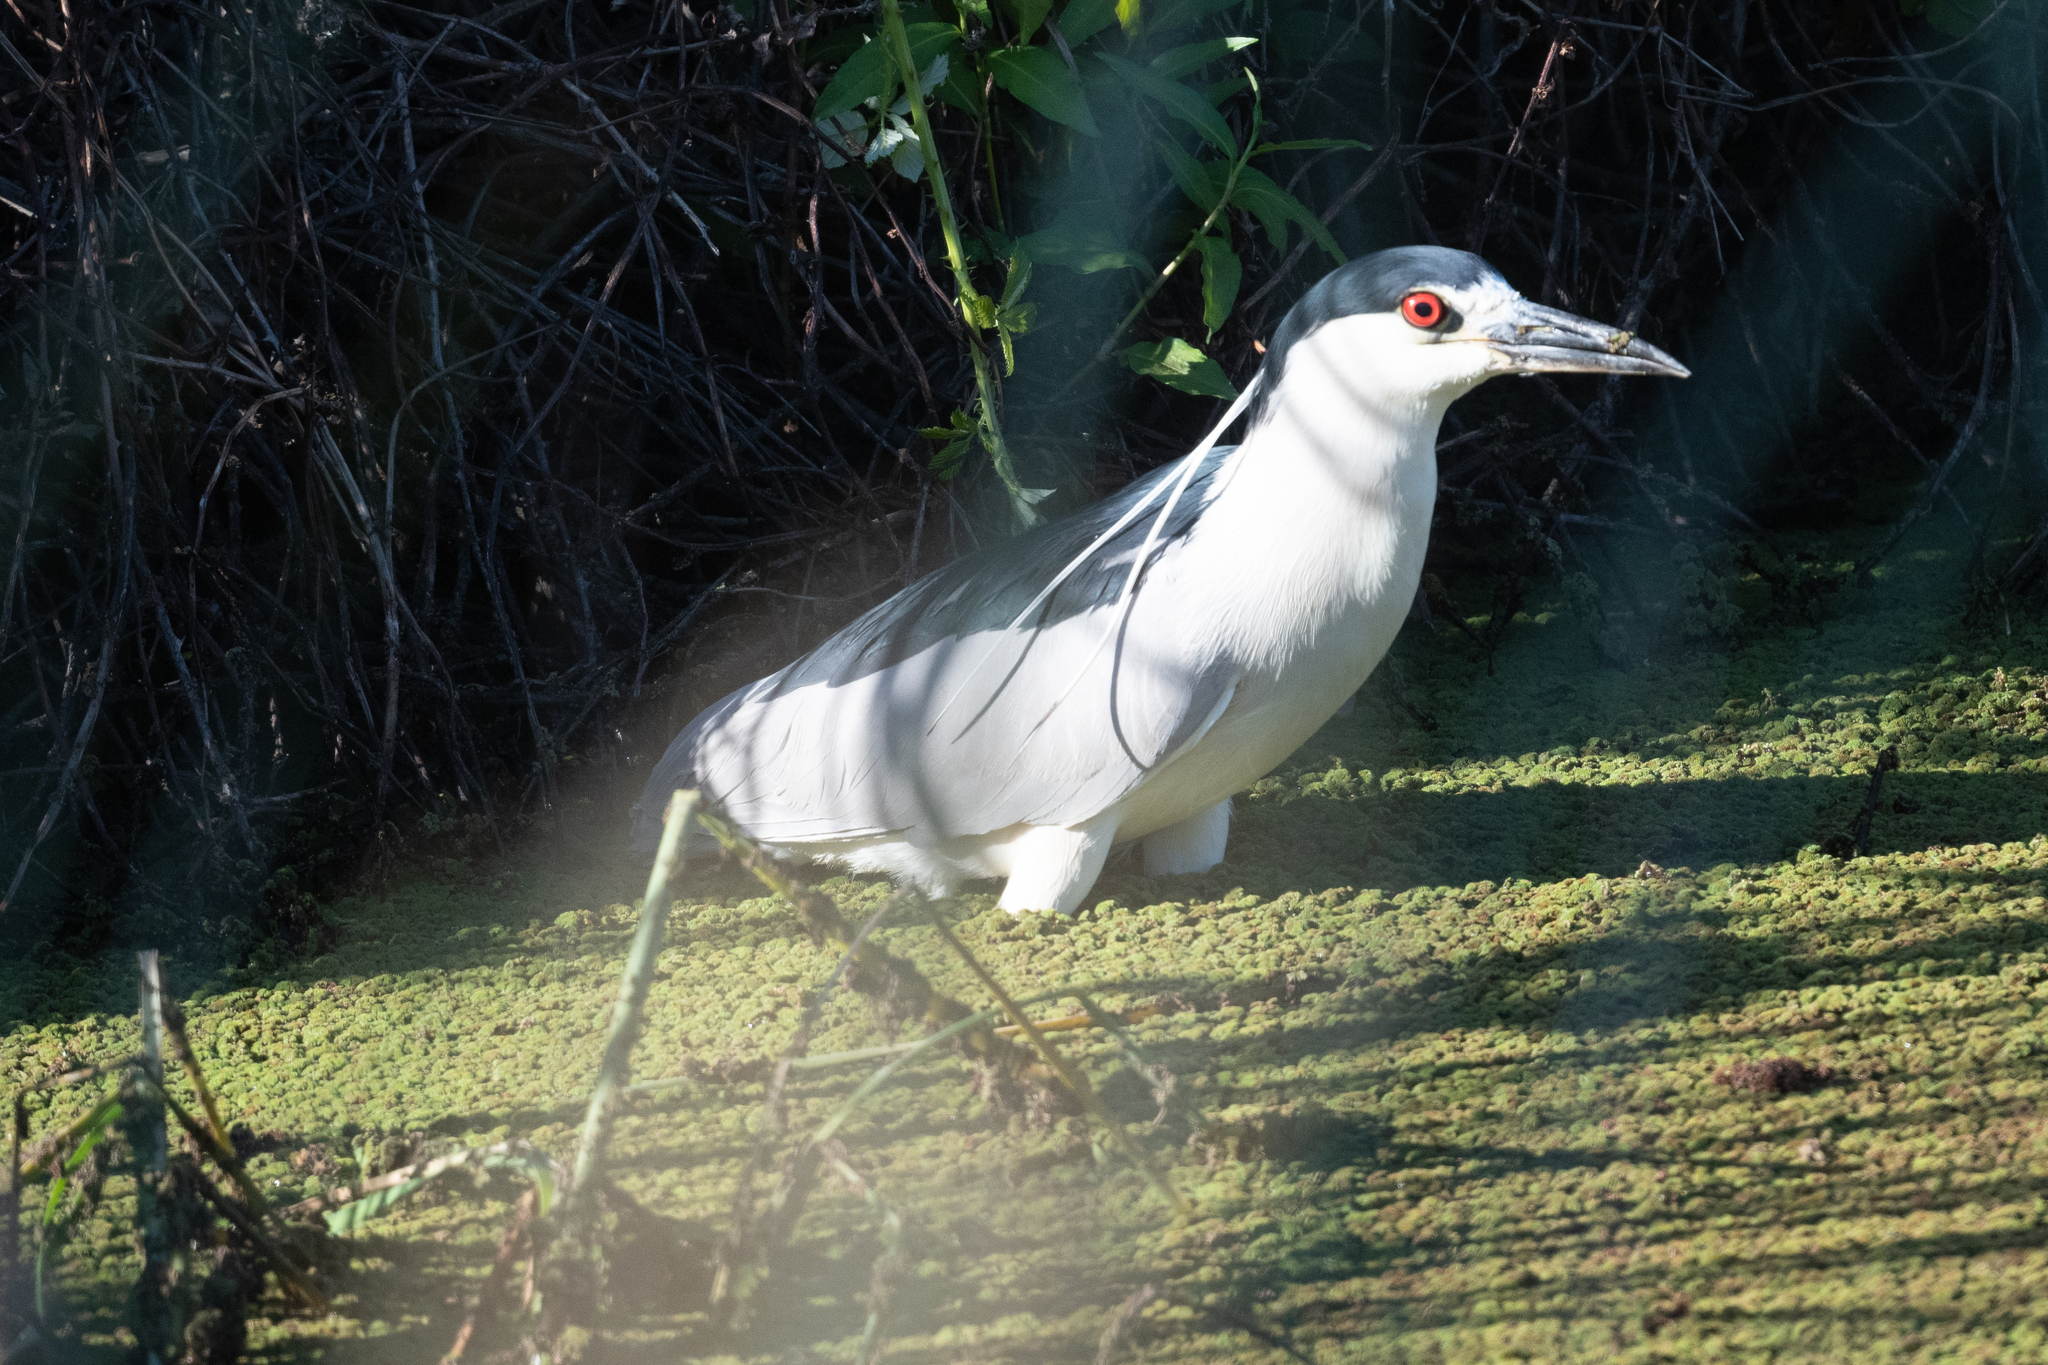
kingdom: Animalia
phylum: Chordata
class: Aves
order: Pelecaniformes
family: Ardeidae
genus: Nycticorax
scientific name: Nycticorax nycticorax
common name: Black-crowned night heron
